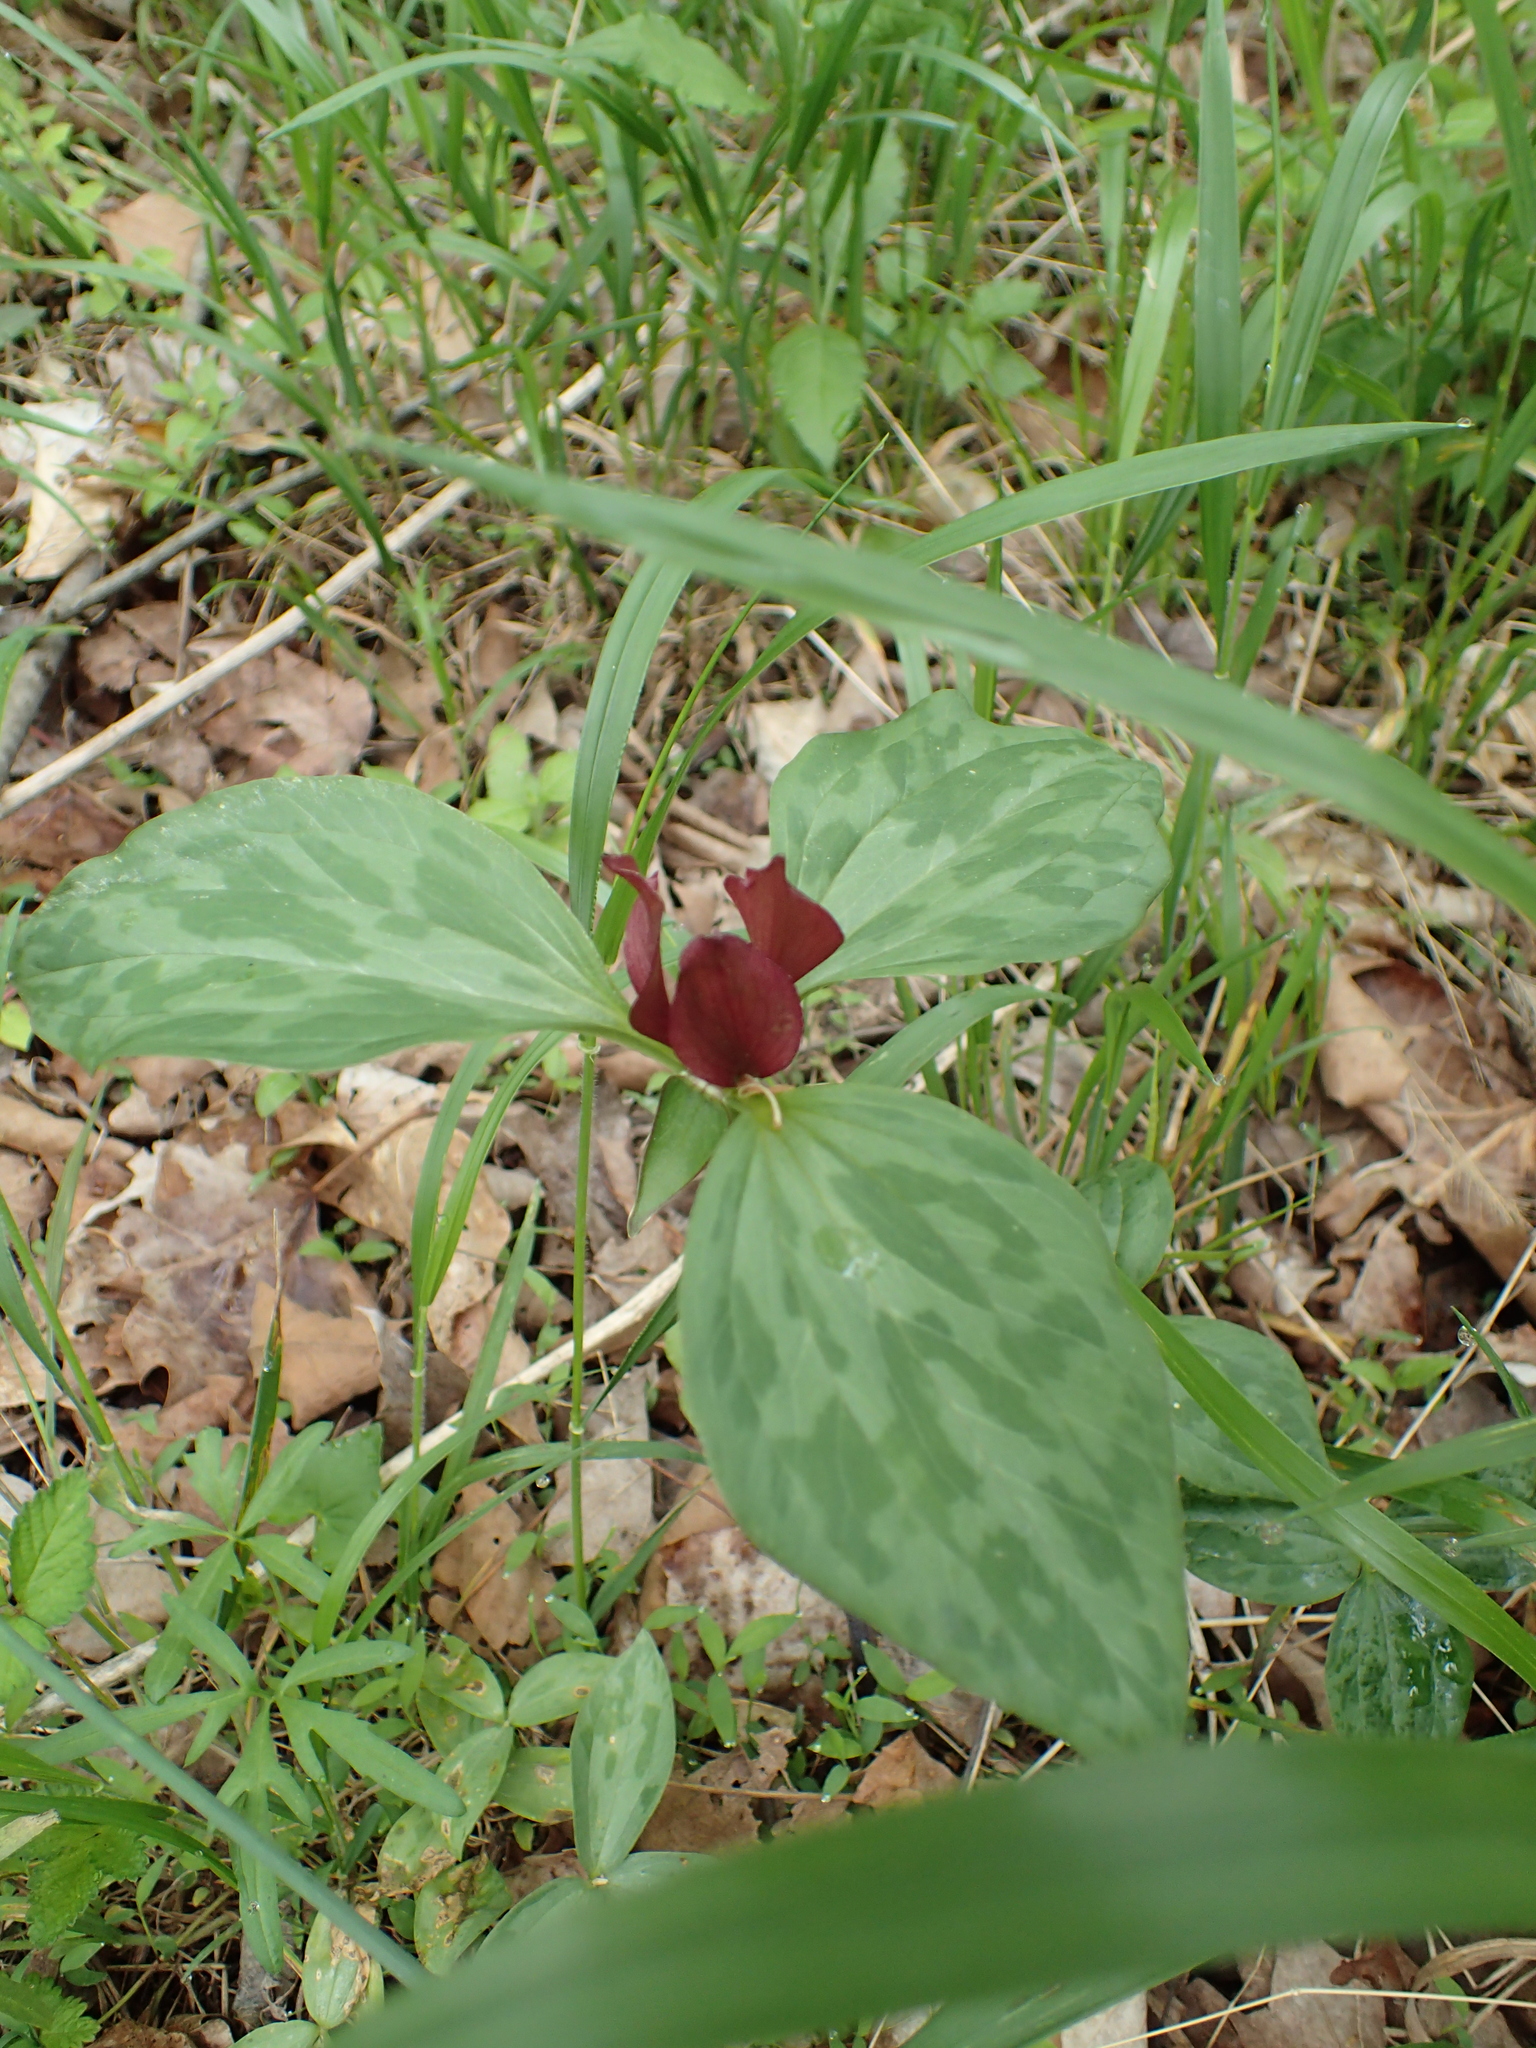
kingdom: Plantae
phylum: Tracheophyta
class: Liliopsida
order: Liliales
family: Melanthiaceae
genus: Trillium
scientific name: Trillium recurvatum
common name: Bloody butcher
